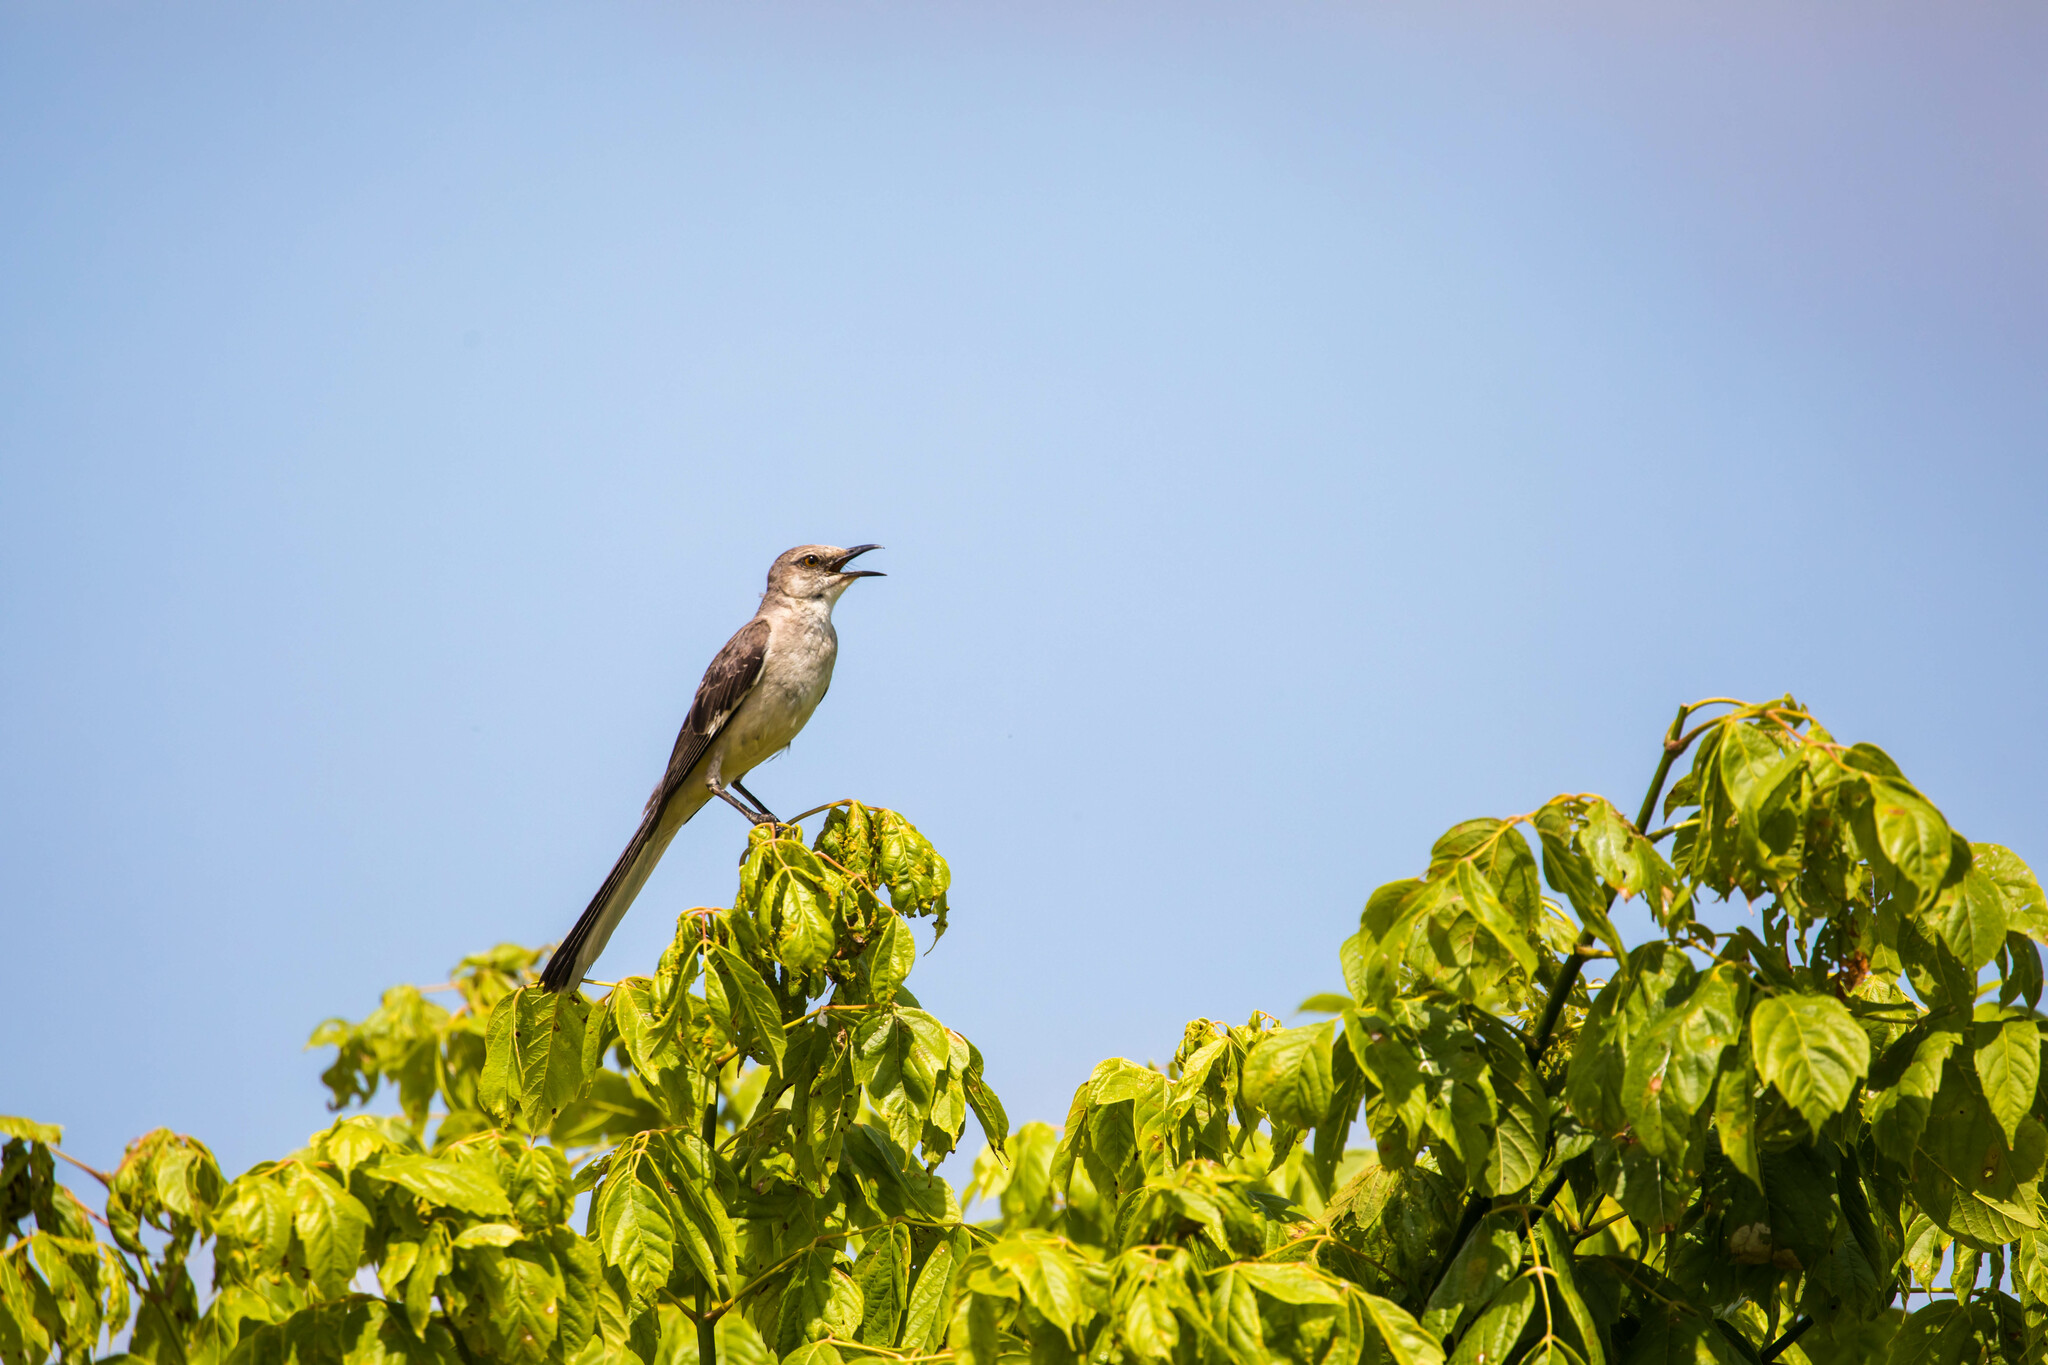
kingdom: Animalia
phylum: Chordata
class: Aves
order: Passeriformes
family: Mimidae
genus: Mimus
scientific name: Mimus polyglottos
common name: Northern mockingbird
